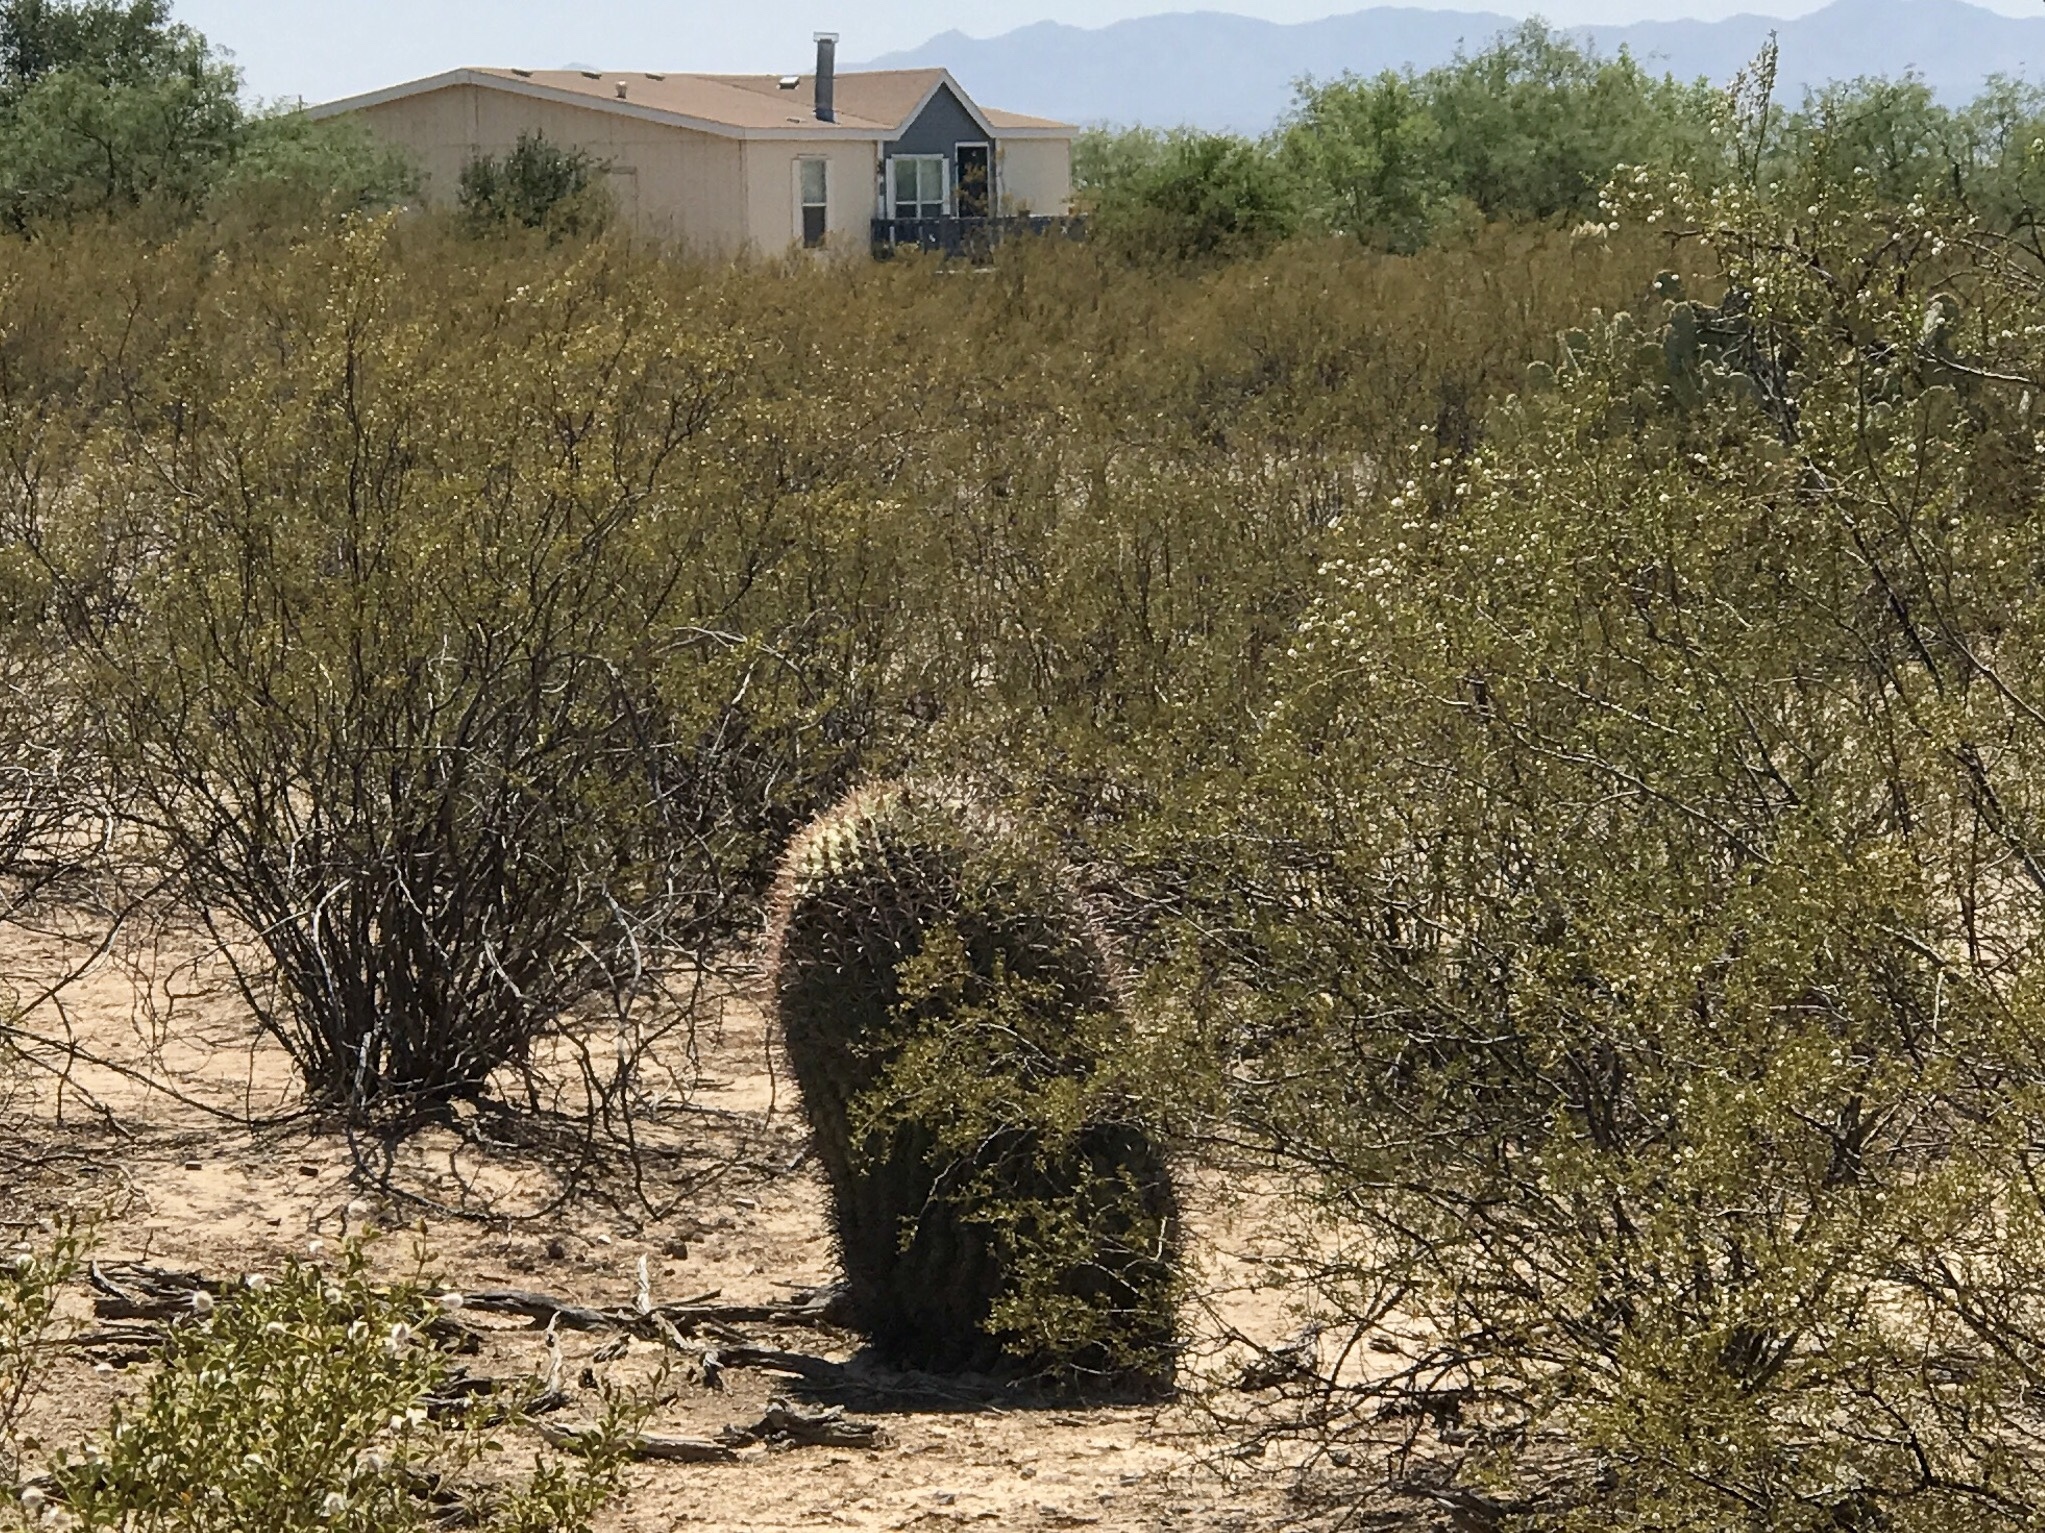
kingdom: Plantae
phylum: Tracheophyta
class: Magnoliopsida
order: Caryophyllales
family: Cactaceae
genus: Ferocactus
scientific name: Ferocactus wislizeni
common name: Candy barrel cactus
